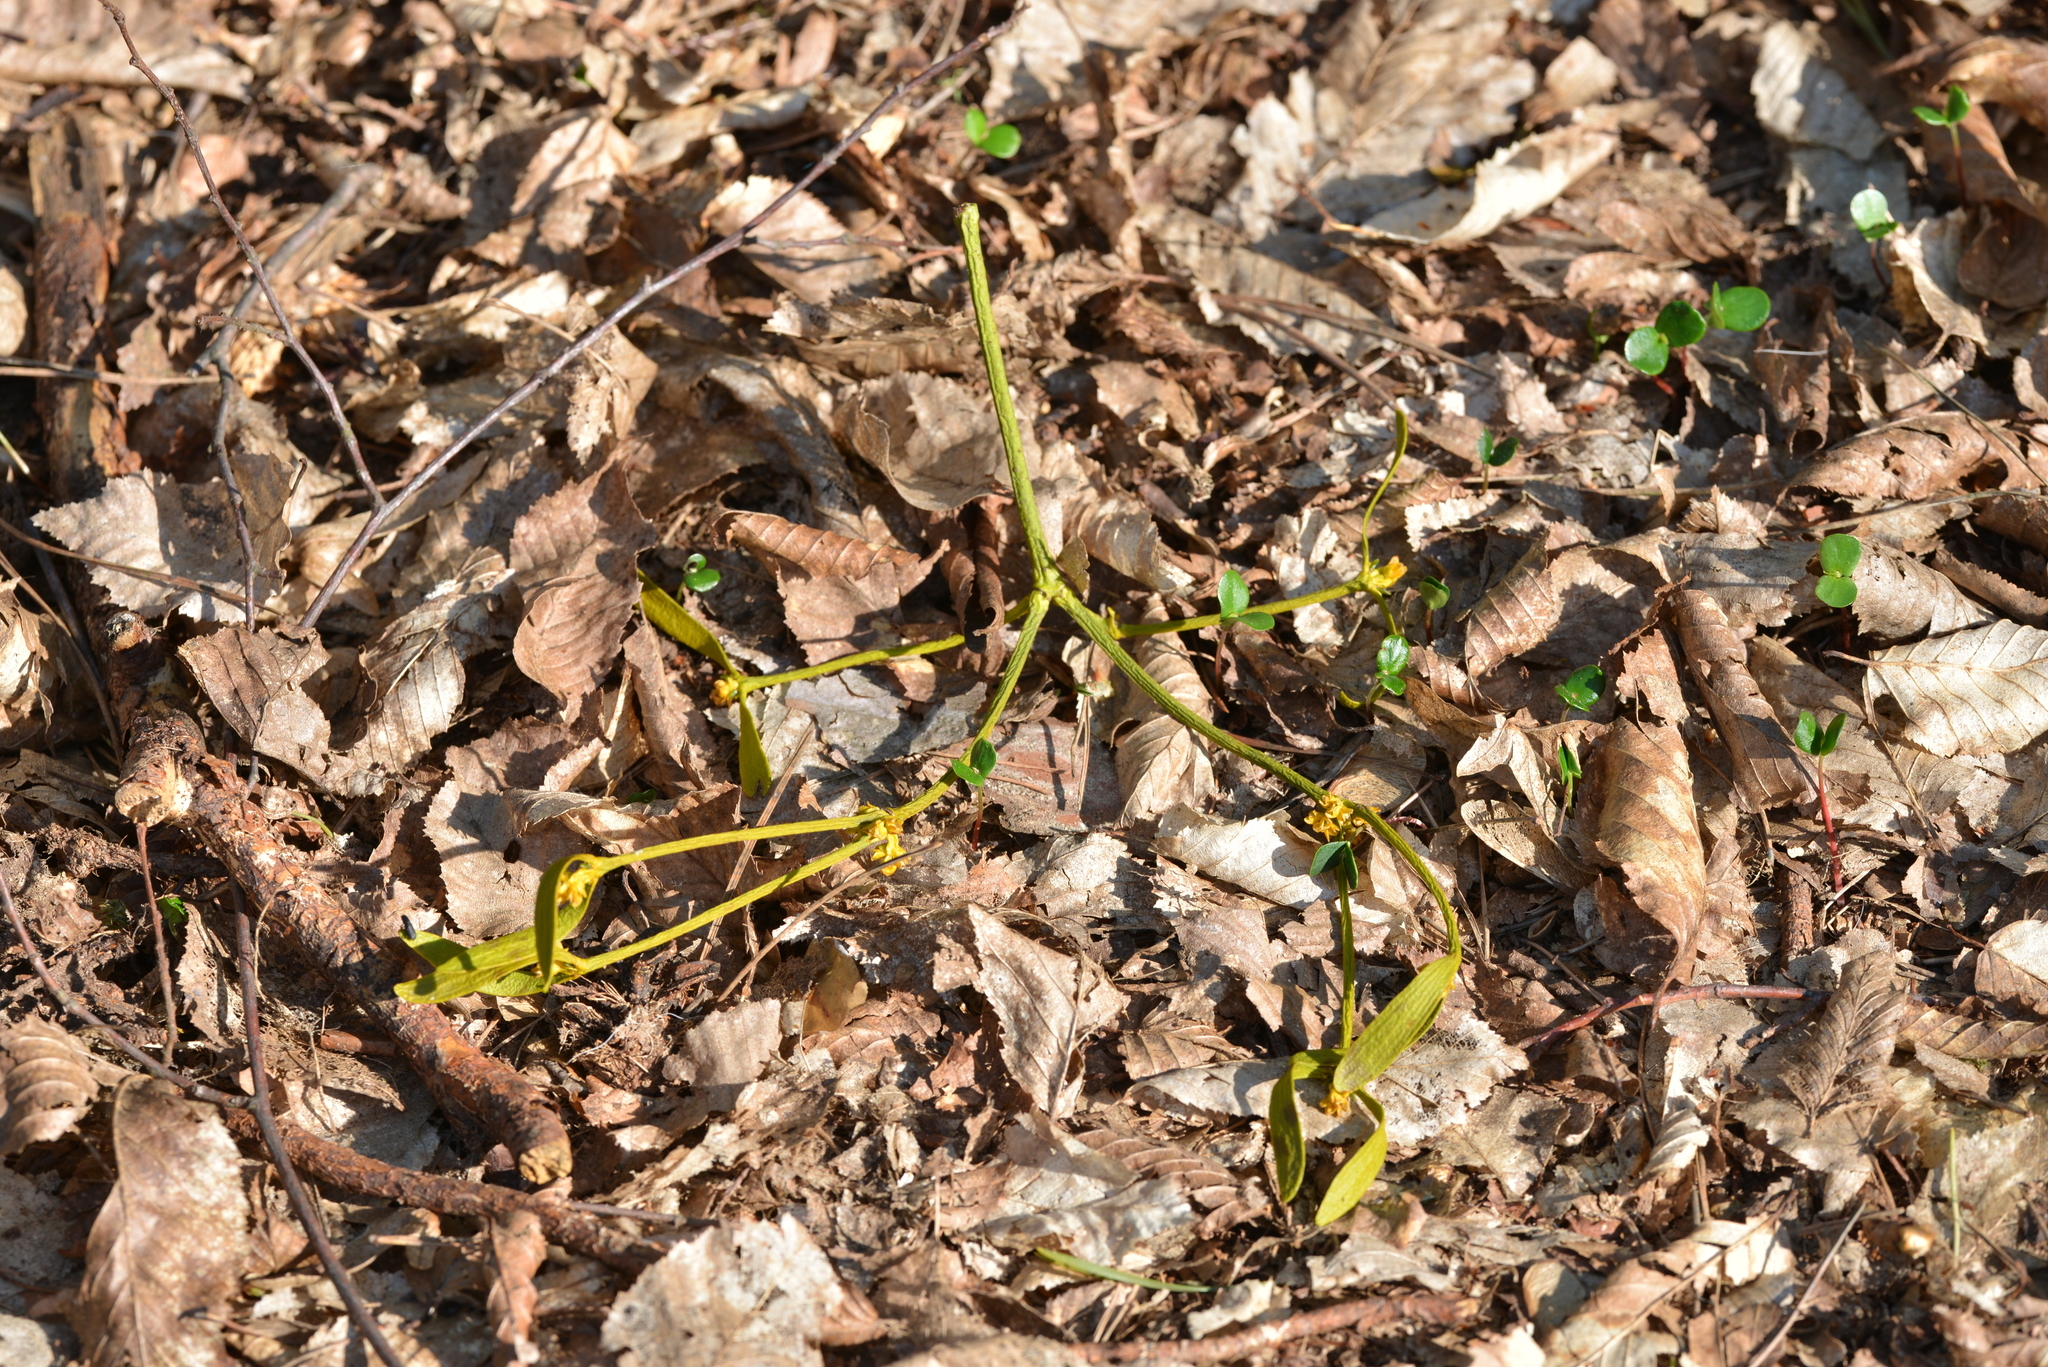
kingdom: Plantae
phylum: Tracheophyta
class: Magnoliopsida
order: Santalales
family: Viscaceae
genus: Viscum
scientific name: Viscum album
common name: Mistletoe
